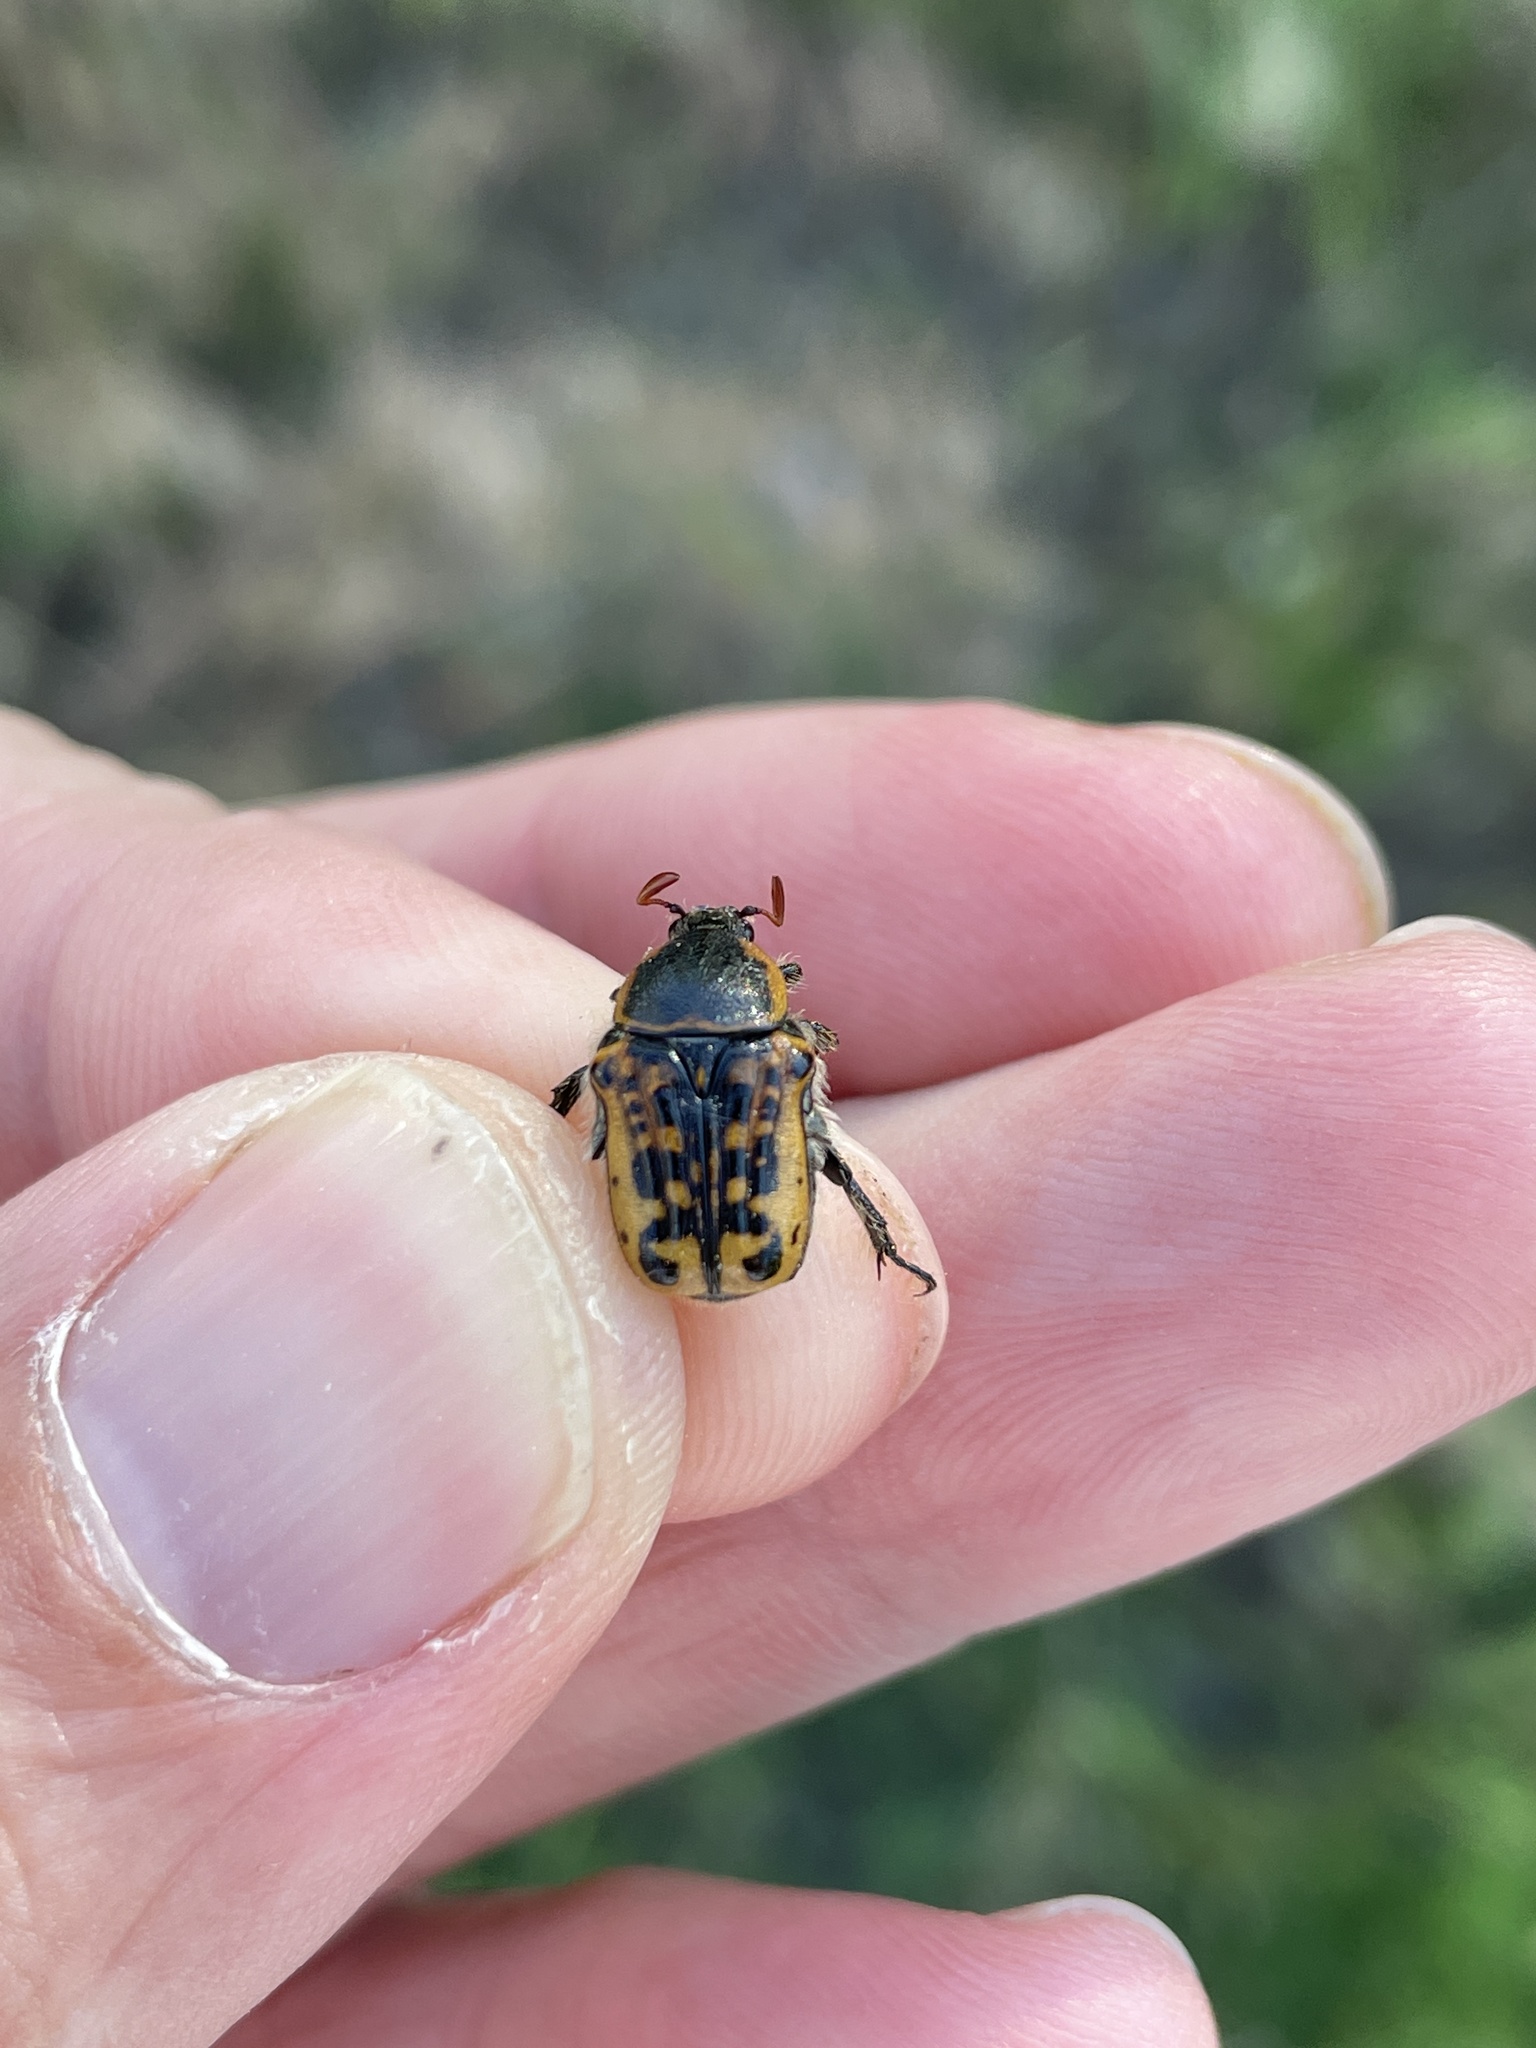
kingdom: Animalia
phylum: Arthropoda
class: Insecta
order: Coleoptera
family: Scarabaeidae
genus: Euphoria
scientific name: Euphoria kernii
